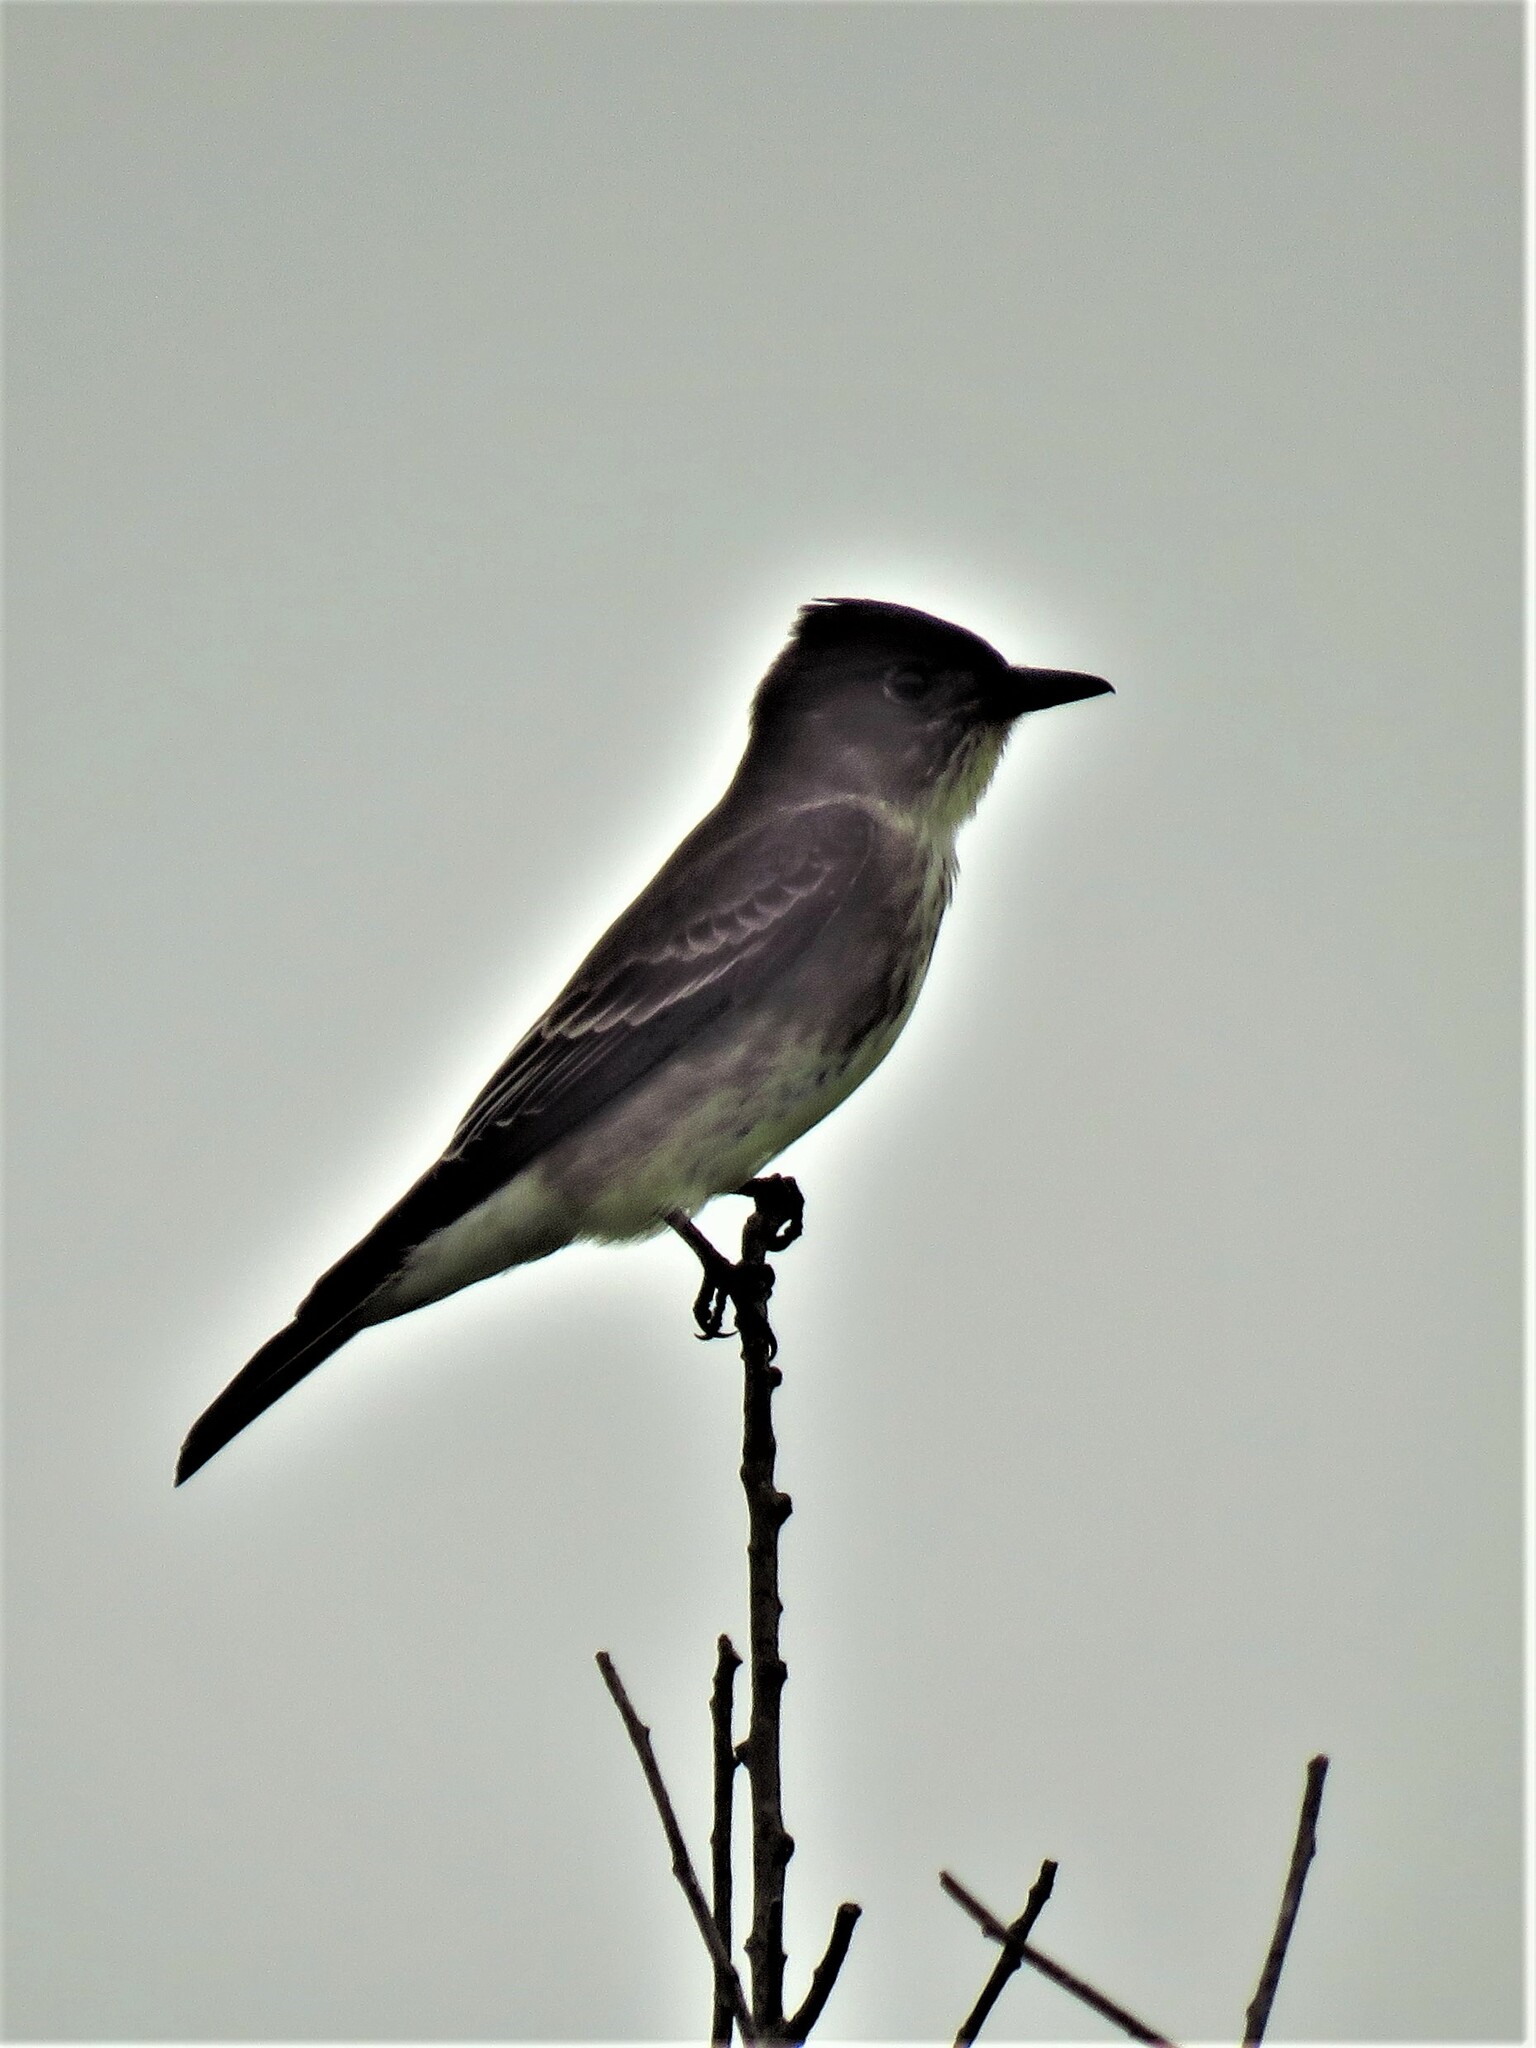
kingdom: Animalia
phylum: Chordata
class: Aves
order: Passeriformes
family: Tyrannidae
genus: Contopus
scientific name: Contopus cooperi
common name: Olive-sided flycatcher
